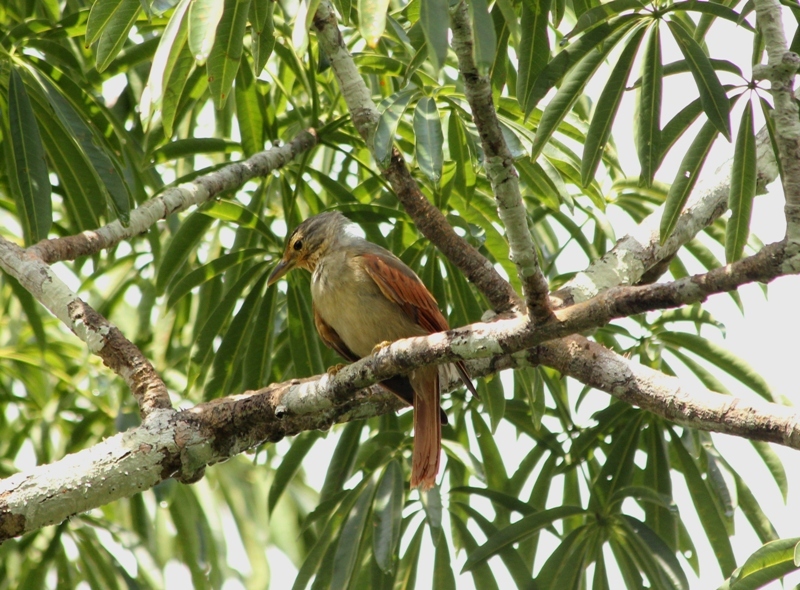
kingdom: Animalia
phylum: Chordata
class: Aves
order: Passeriformes
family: Furnariidae
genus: Philydor
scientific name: Philydor erythropterum
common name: Chestnut-winged foliage-gleaner
